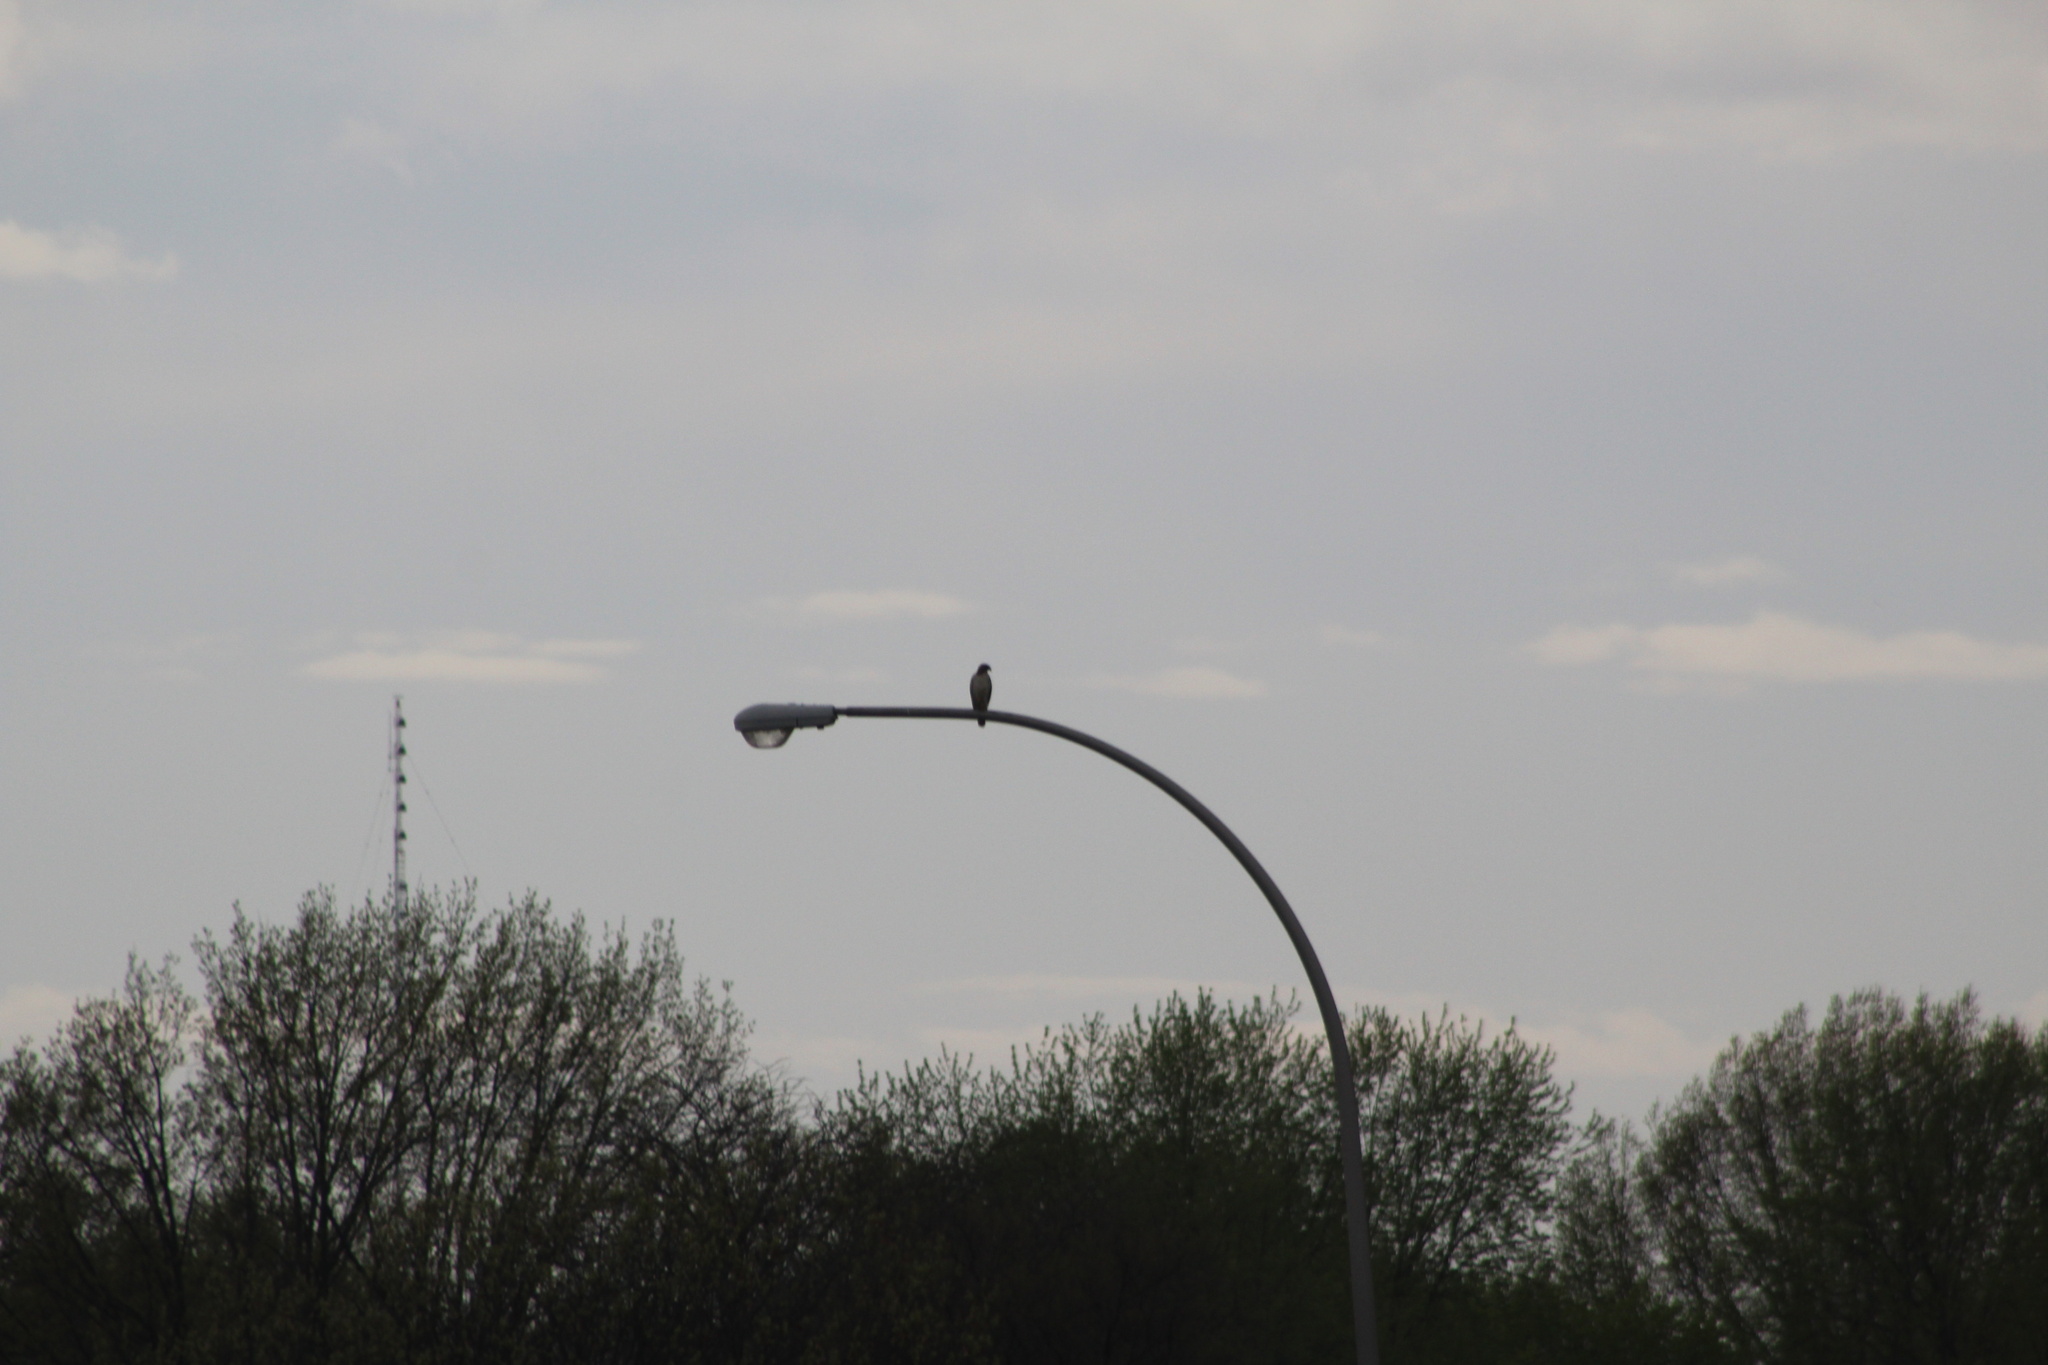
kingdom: Animalia
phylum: Chordata
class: Aves
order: Accipitriformes
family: Accipitridae
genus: Buteo
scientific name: Buteo jamaicensis
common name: Red-tailed hawk
